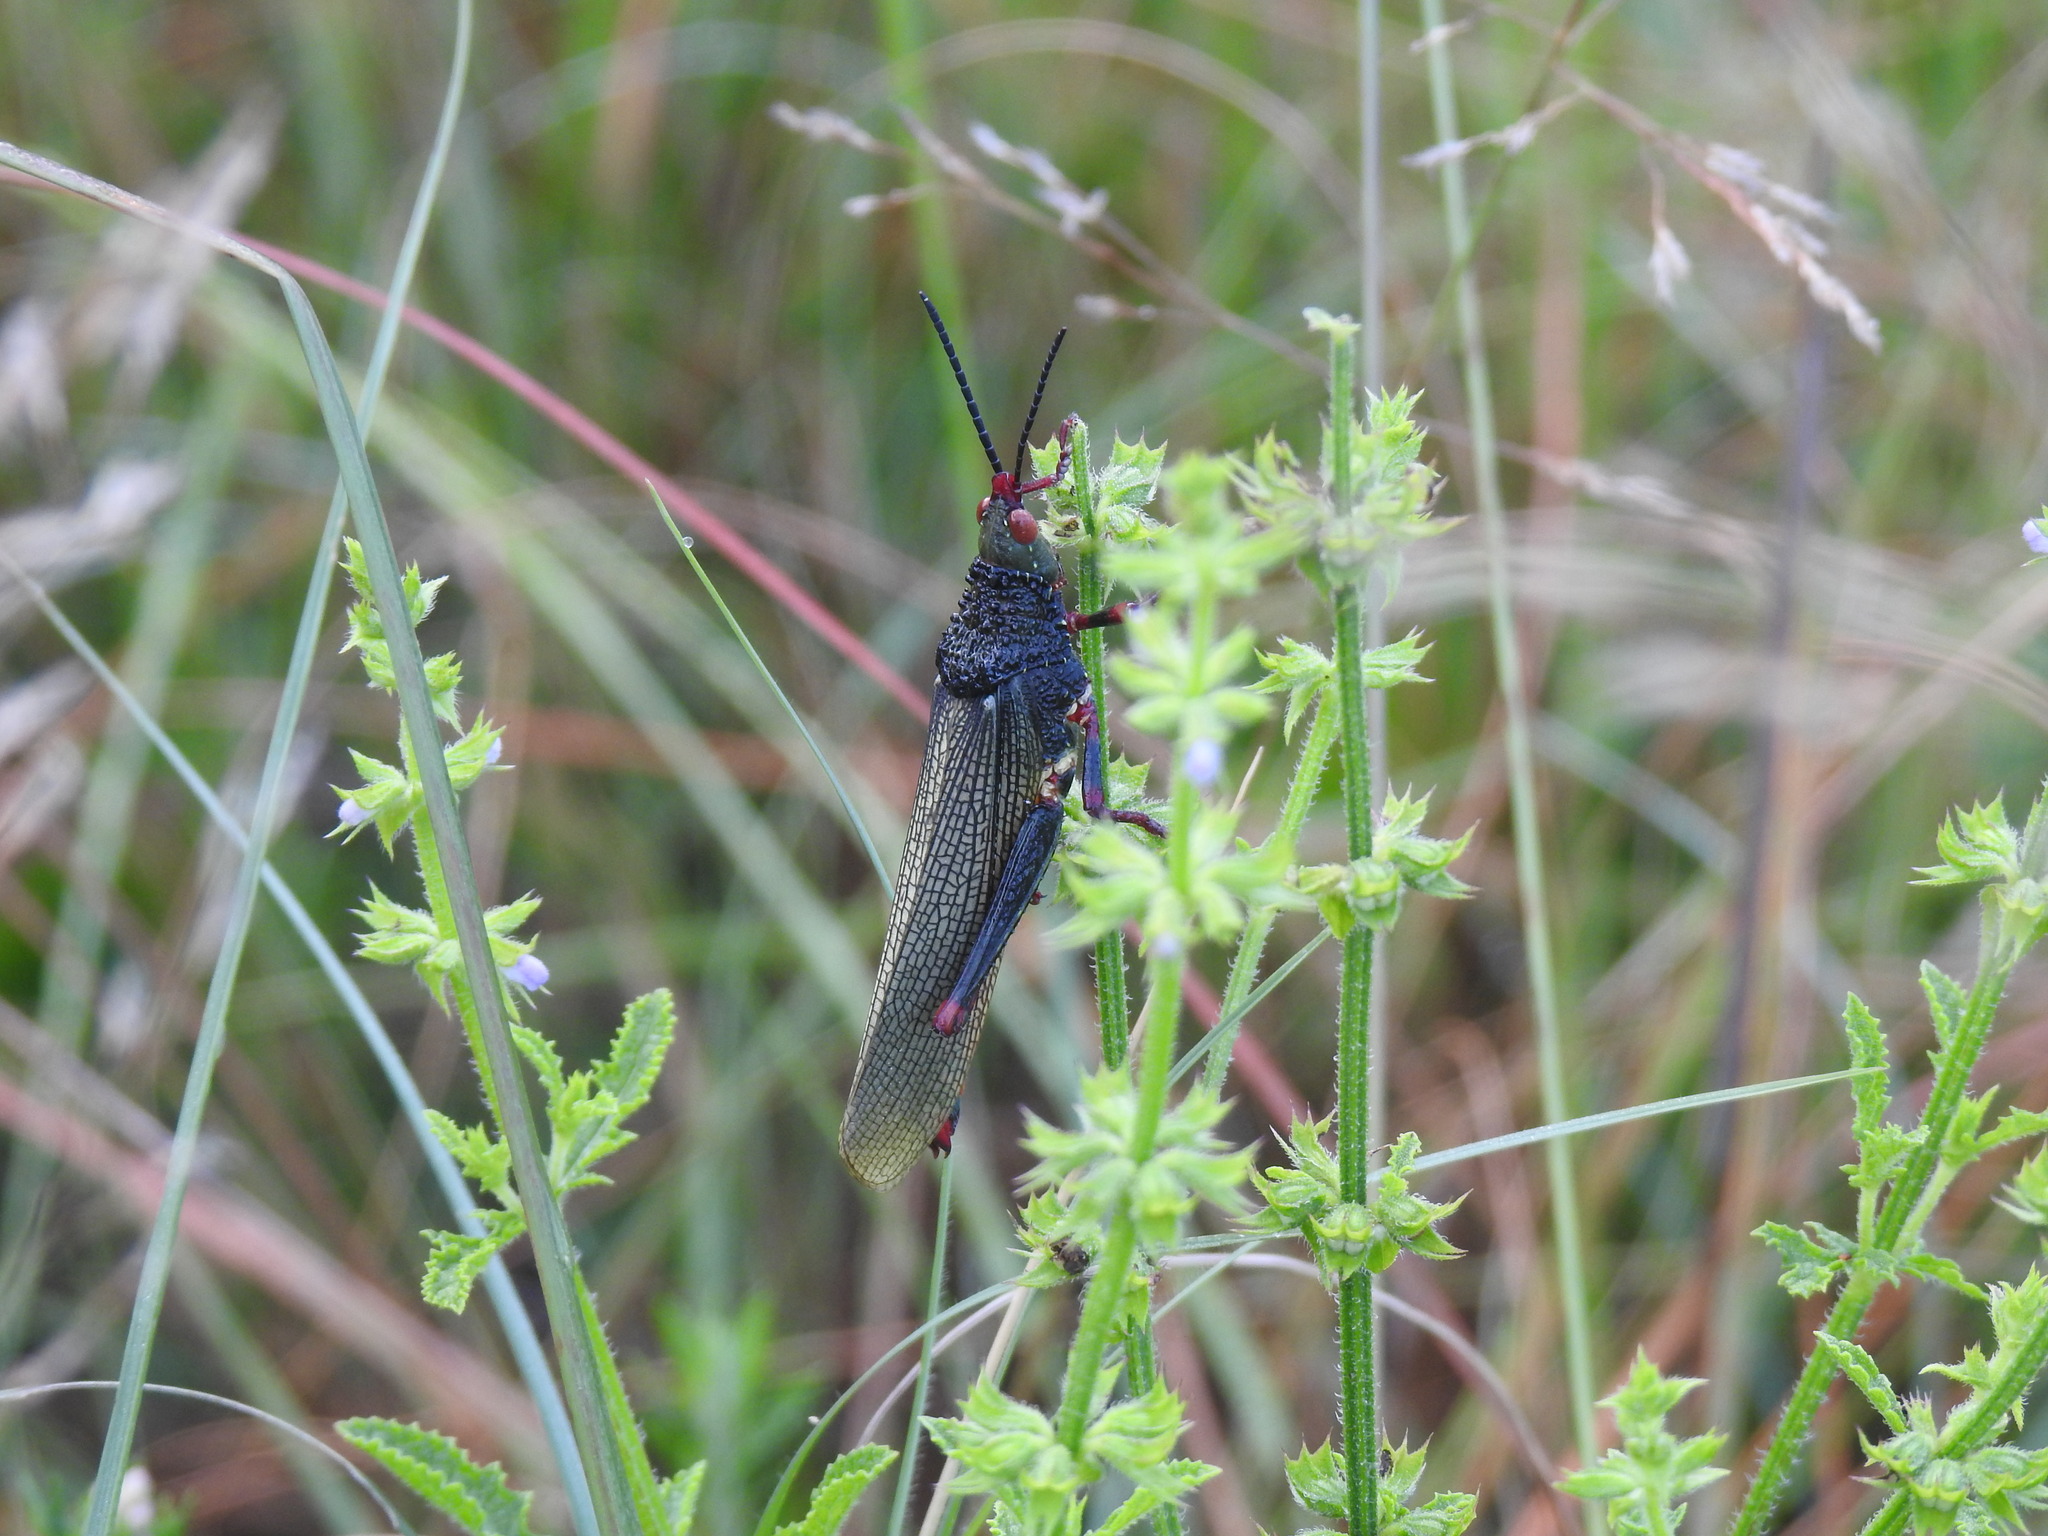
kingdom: Animalia
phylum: Arthropoda
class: Insecta
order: Orthoptera
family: Pyrgomorphidae
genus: Taphronota
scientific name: Taphronota stali
